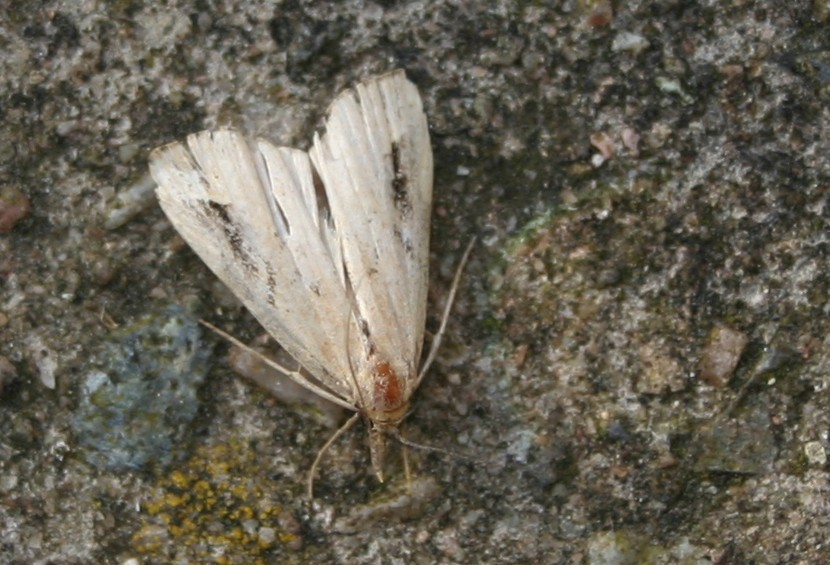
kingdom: Animalia
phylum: Arthropoda
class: Insecta
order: Lepidoptera
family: Erebidae
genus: Schrankia
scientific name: Schrankia costaestrigalis
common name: Pinion-streaked snout
